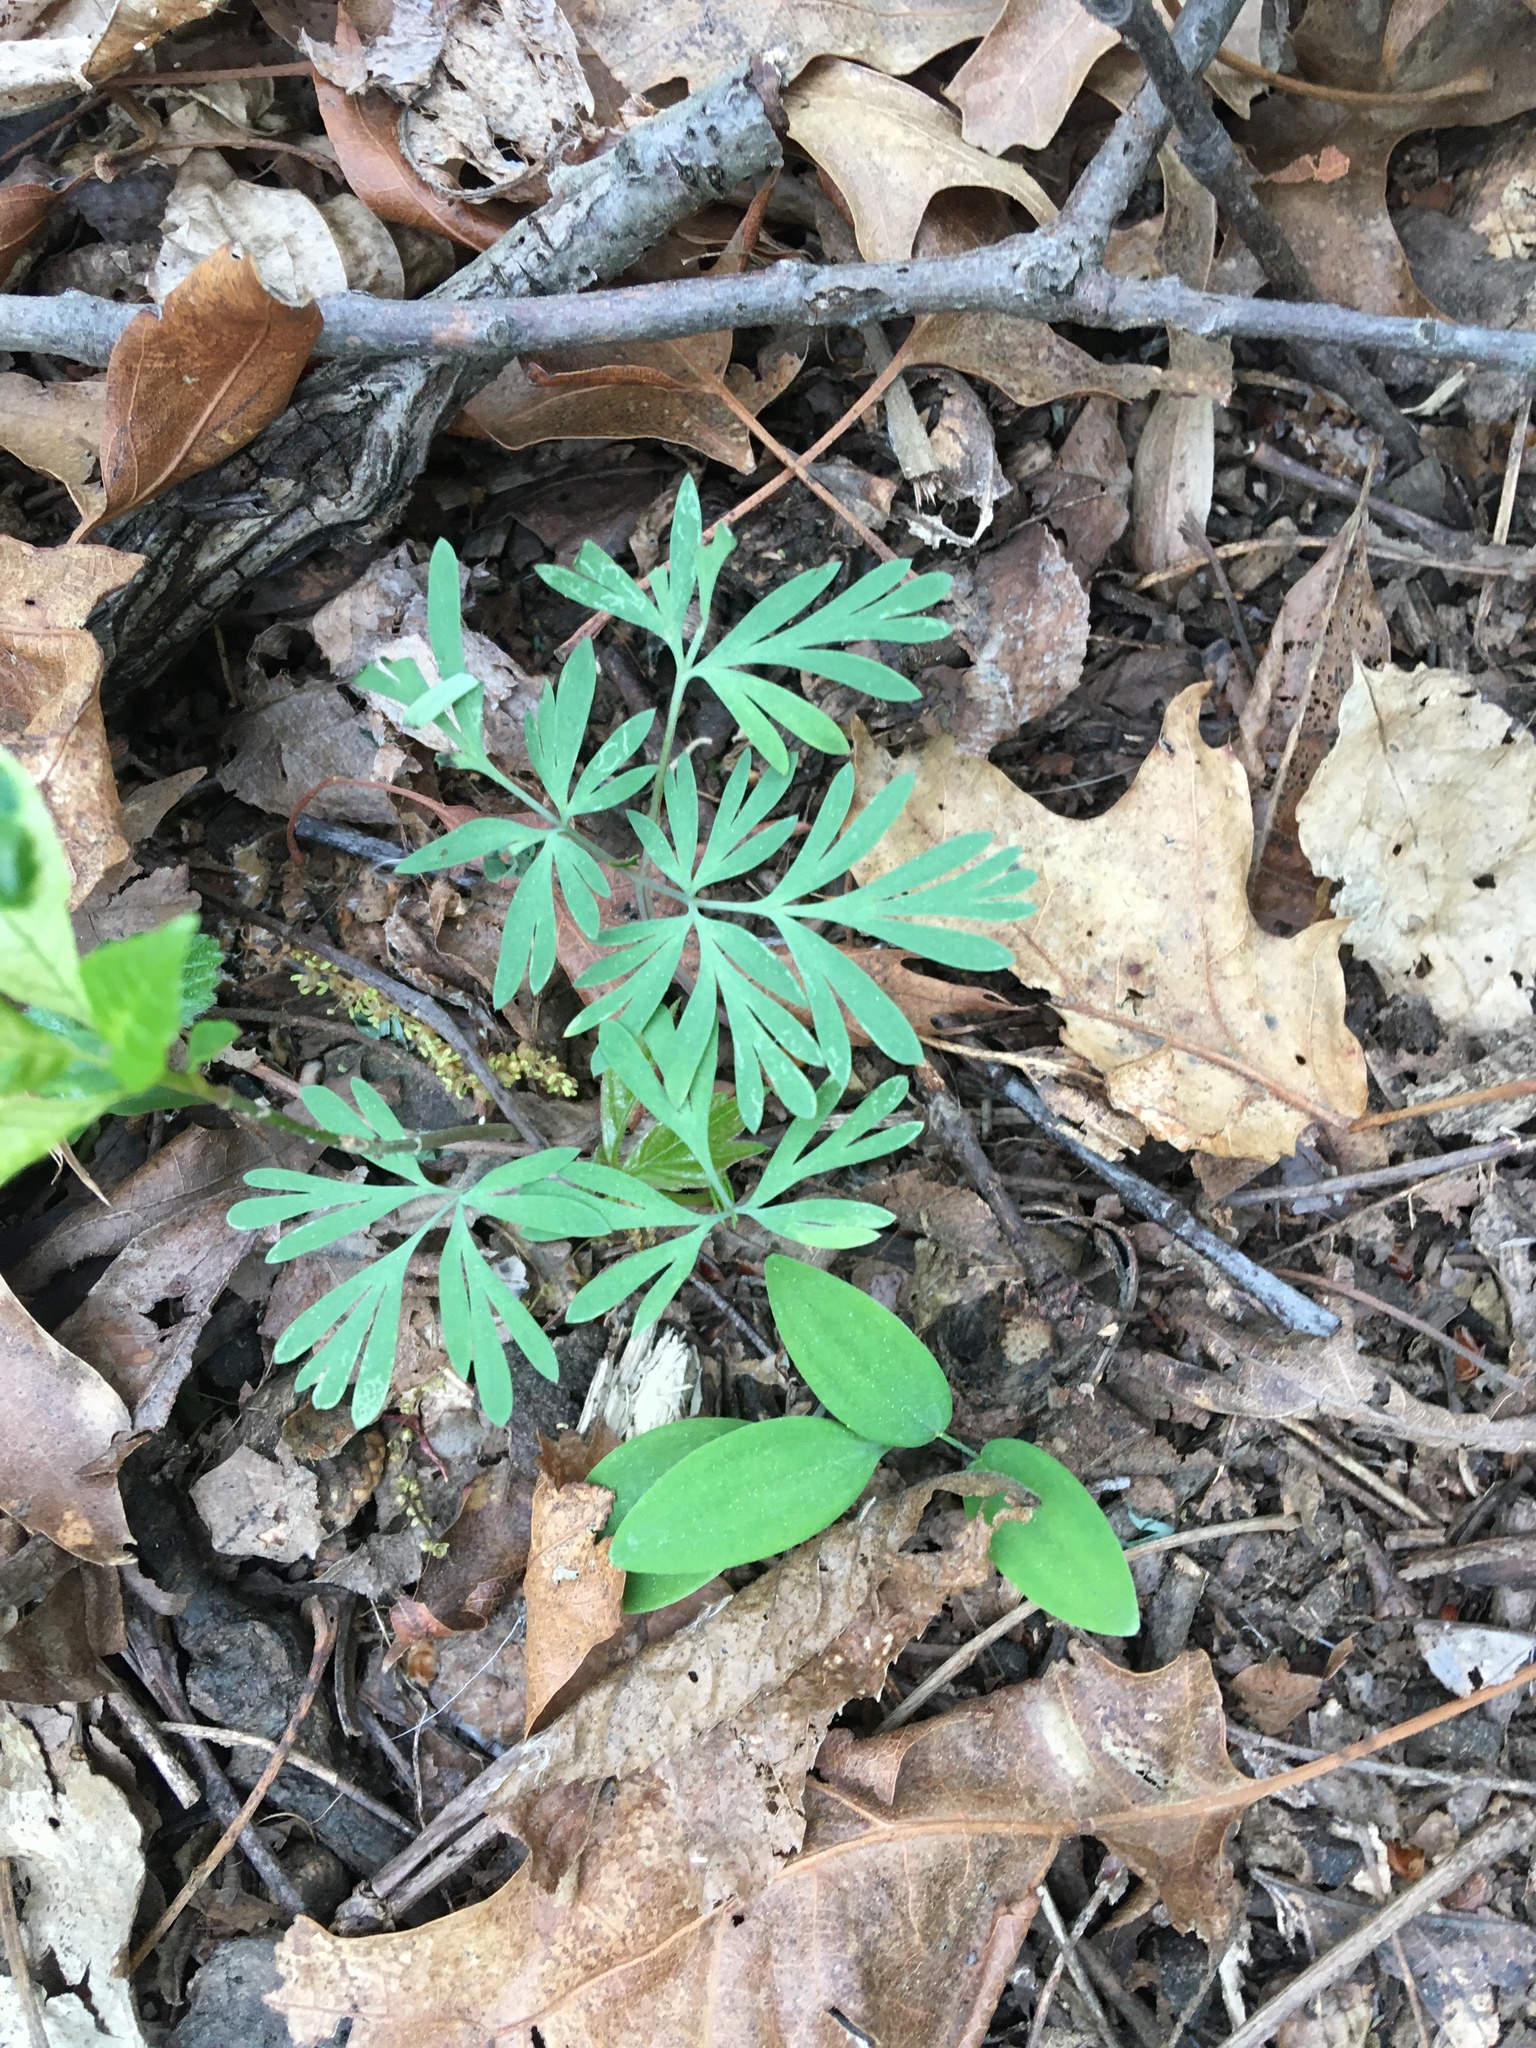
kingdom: Plantae
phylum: Tracheophyta
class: Magnoliopsida
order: Ranunculales
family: Papaveraceae
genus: Dicentra
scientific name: Dicentra cucullaria
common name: Dutchman's breeches
